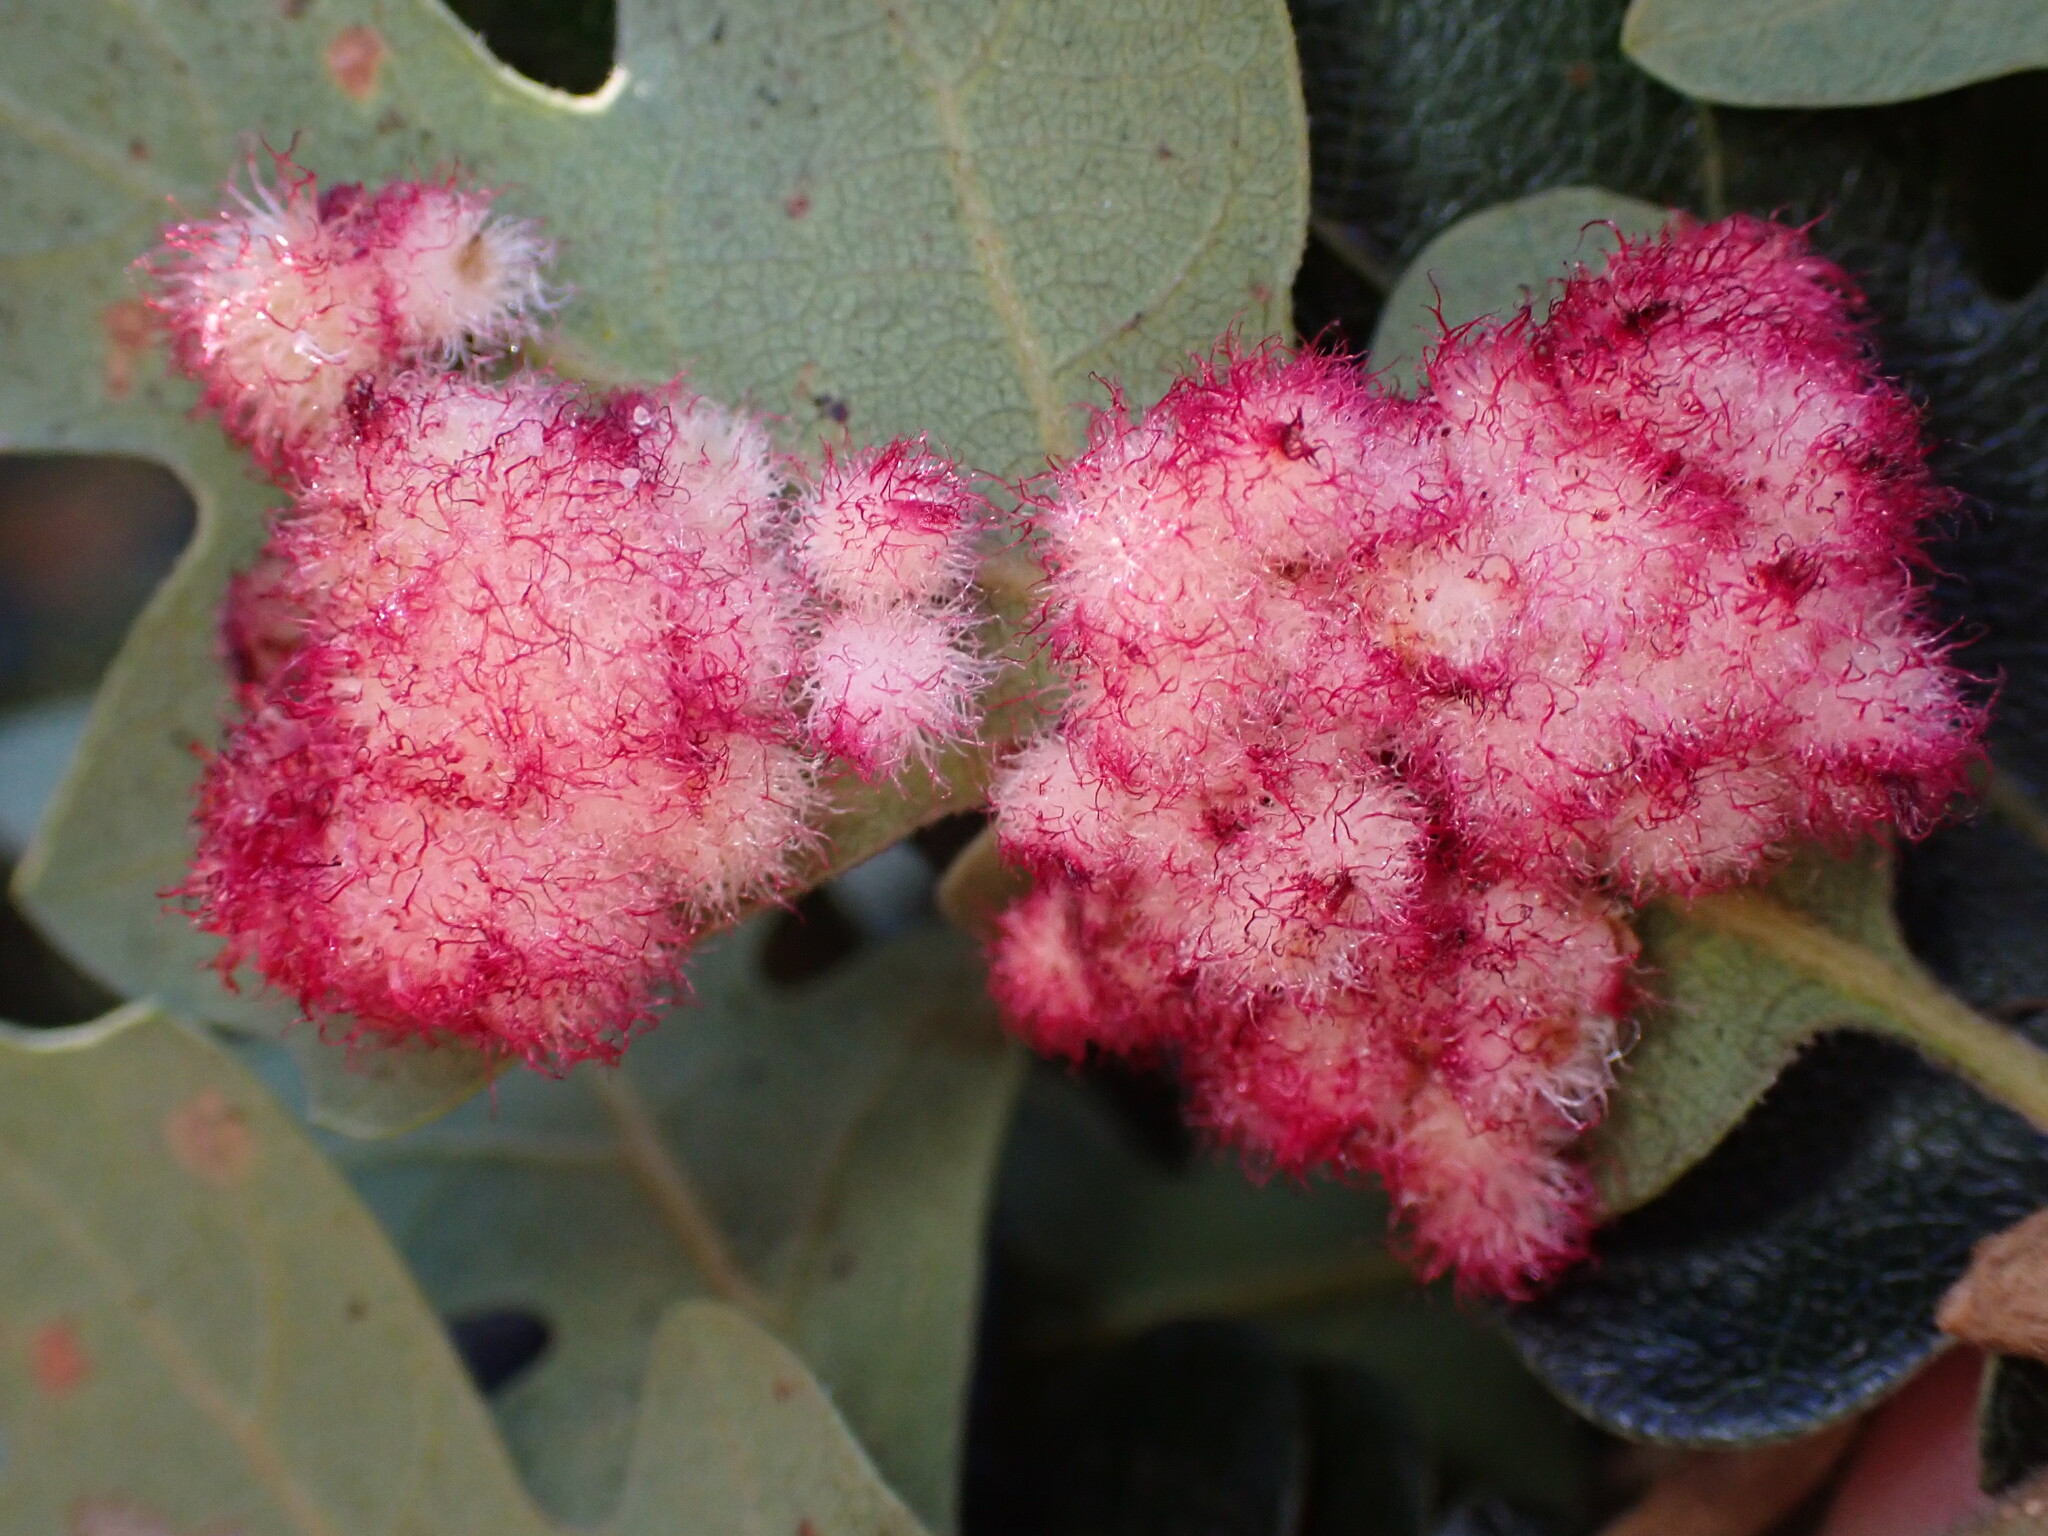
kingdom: Animalia
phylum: Arthropoda
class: Insecta
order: Hymenoptera
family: Cynipidae
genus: Andricus
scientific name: Andricus
